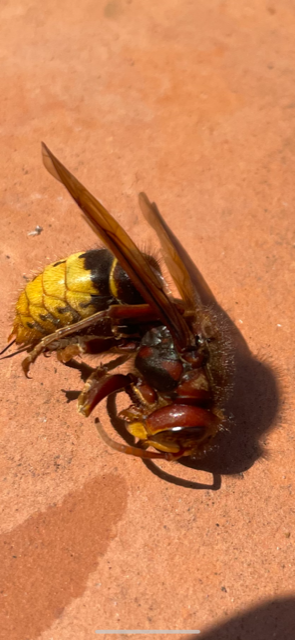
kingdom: Animalia
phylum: Arthropoda
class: Insecta
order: Hymenoptera
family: Vespidae
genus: Vespa
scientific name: Vespa crabro
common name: Hornet
